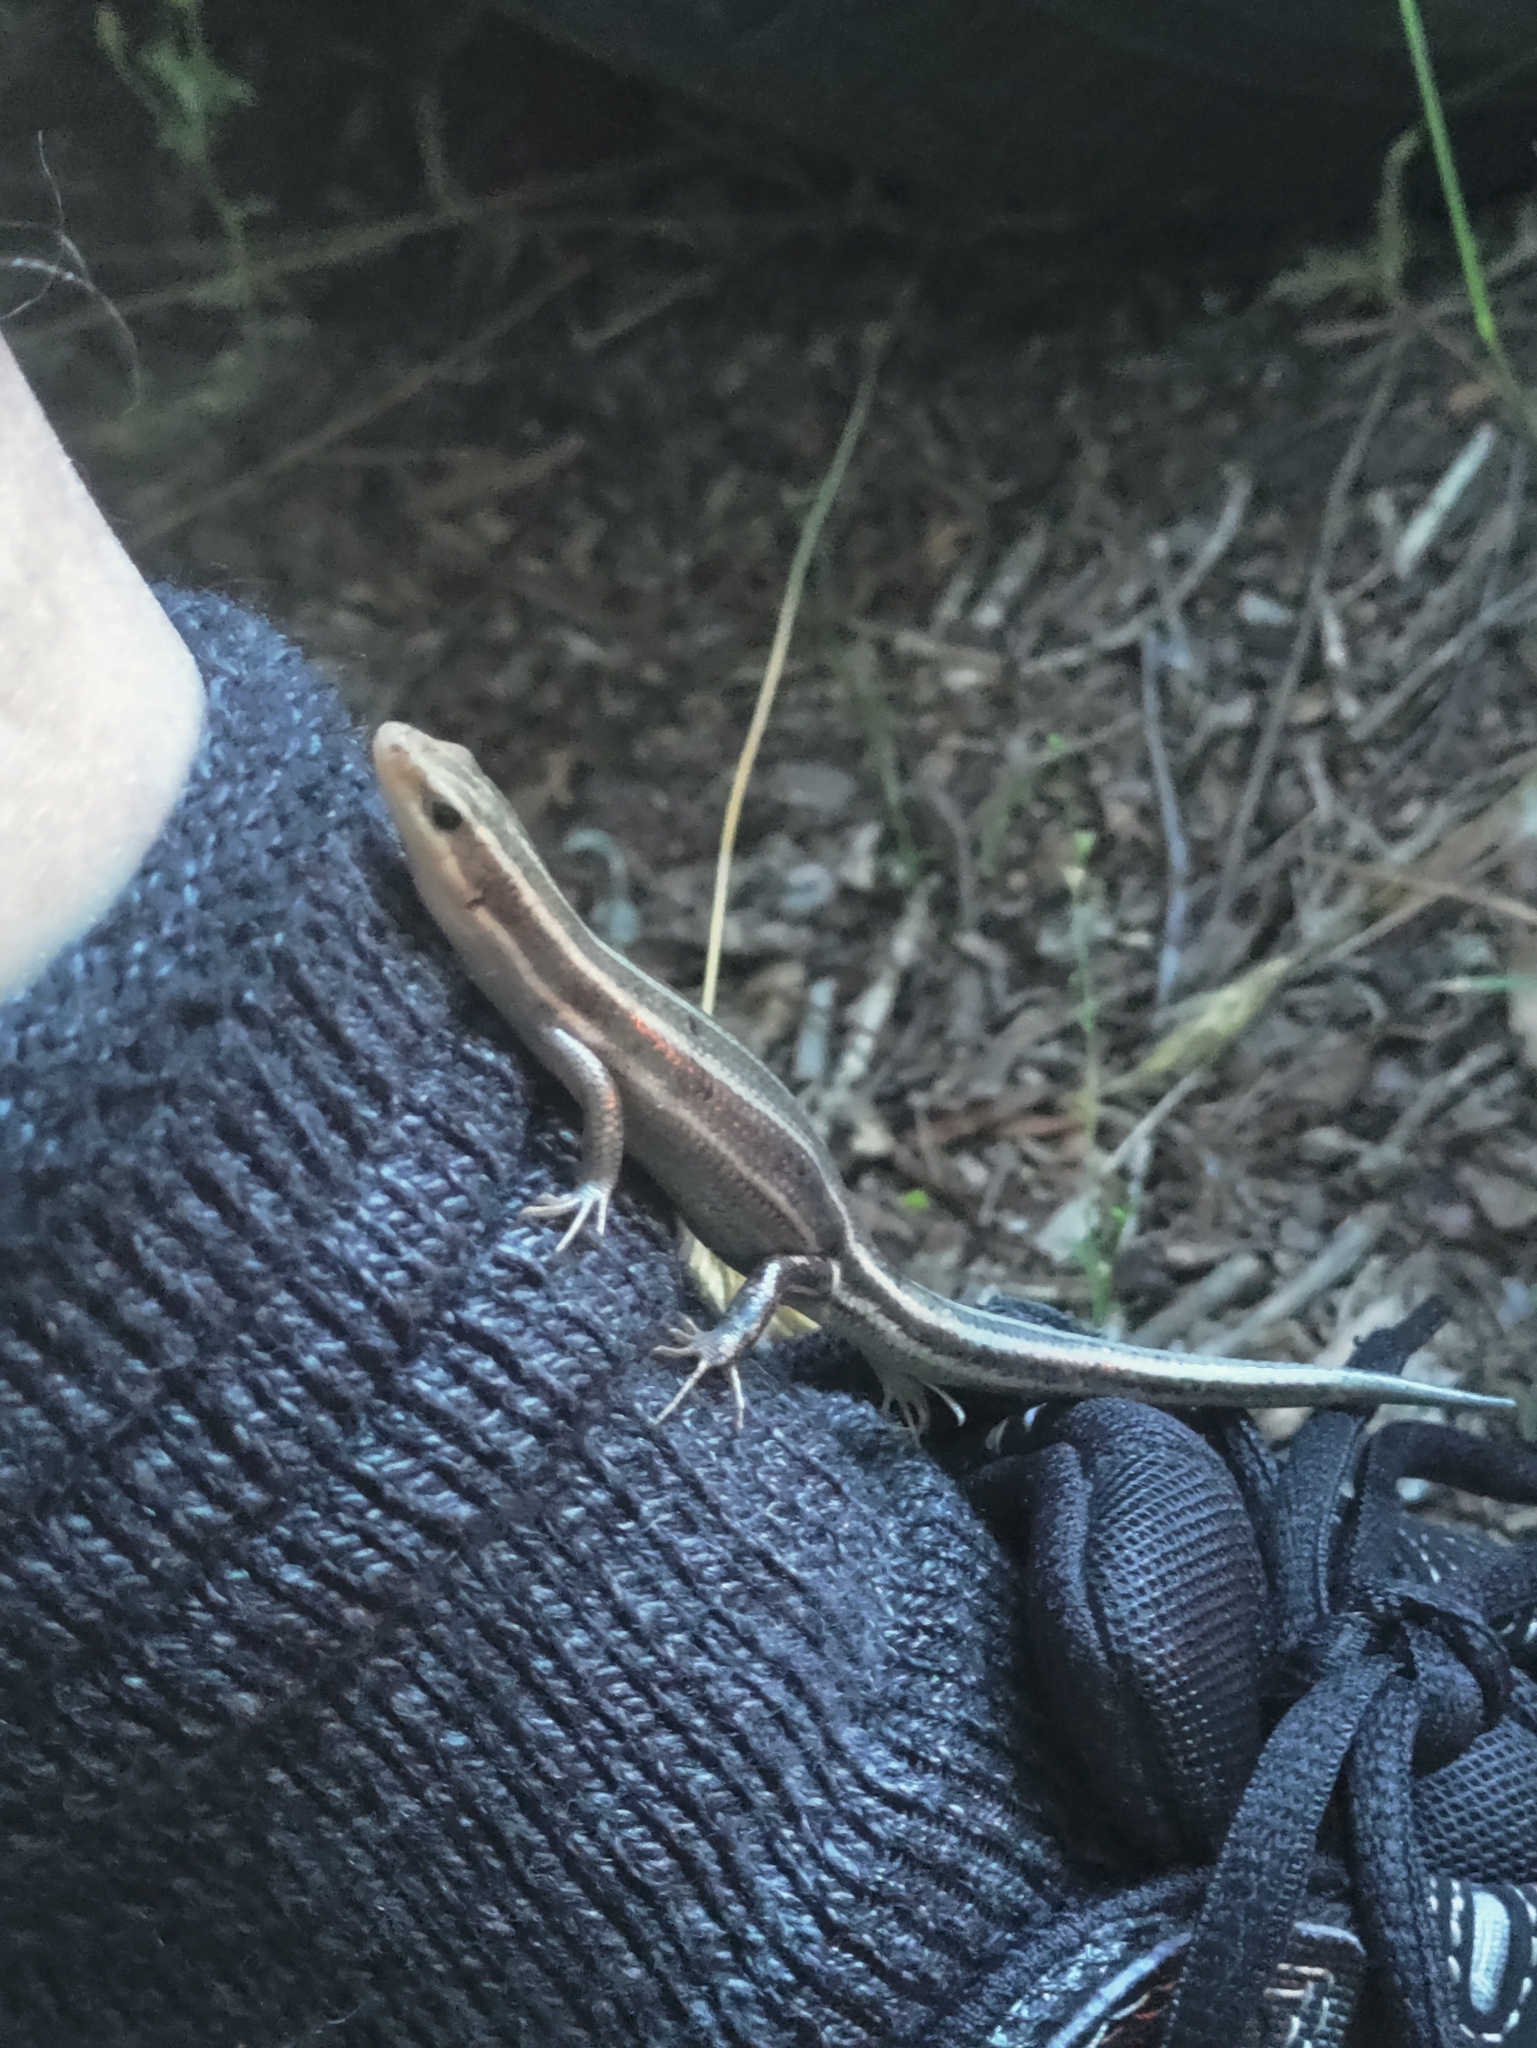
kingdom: Animalia
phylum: Chordata
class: Squamata
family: Scincidae
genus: Plestiodon
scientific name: Plestiodon fasciatus
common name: Five-lined skink
